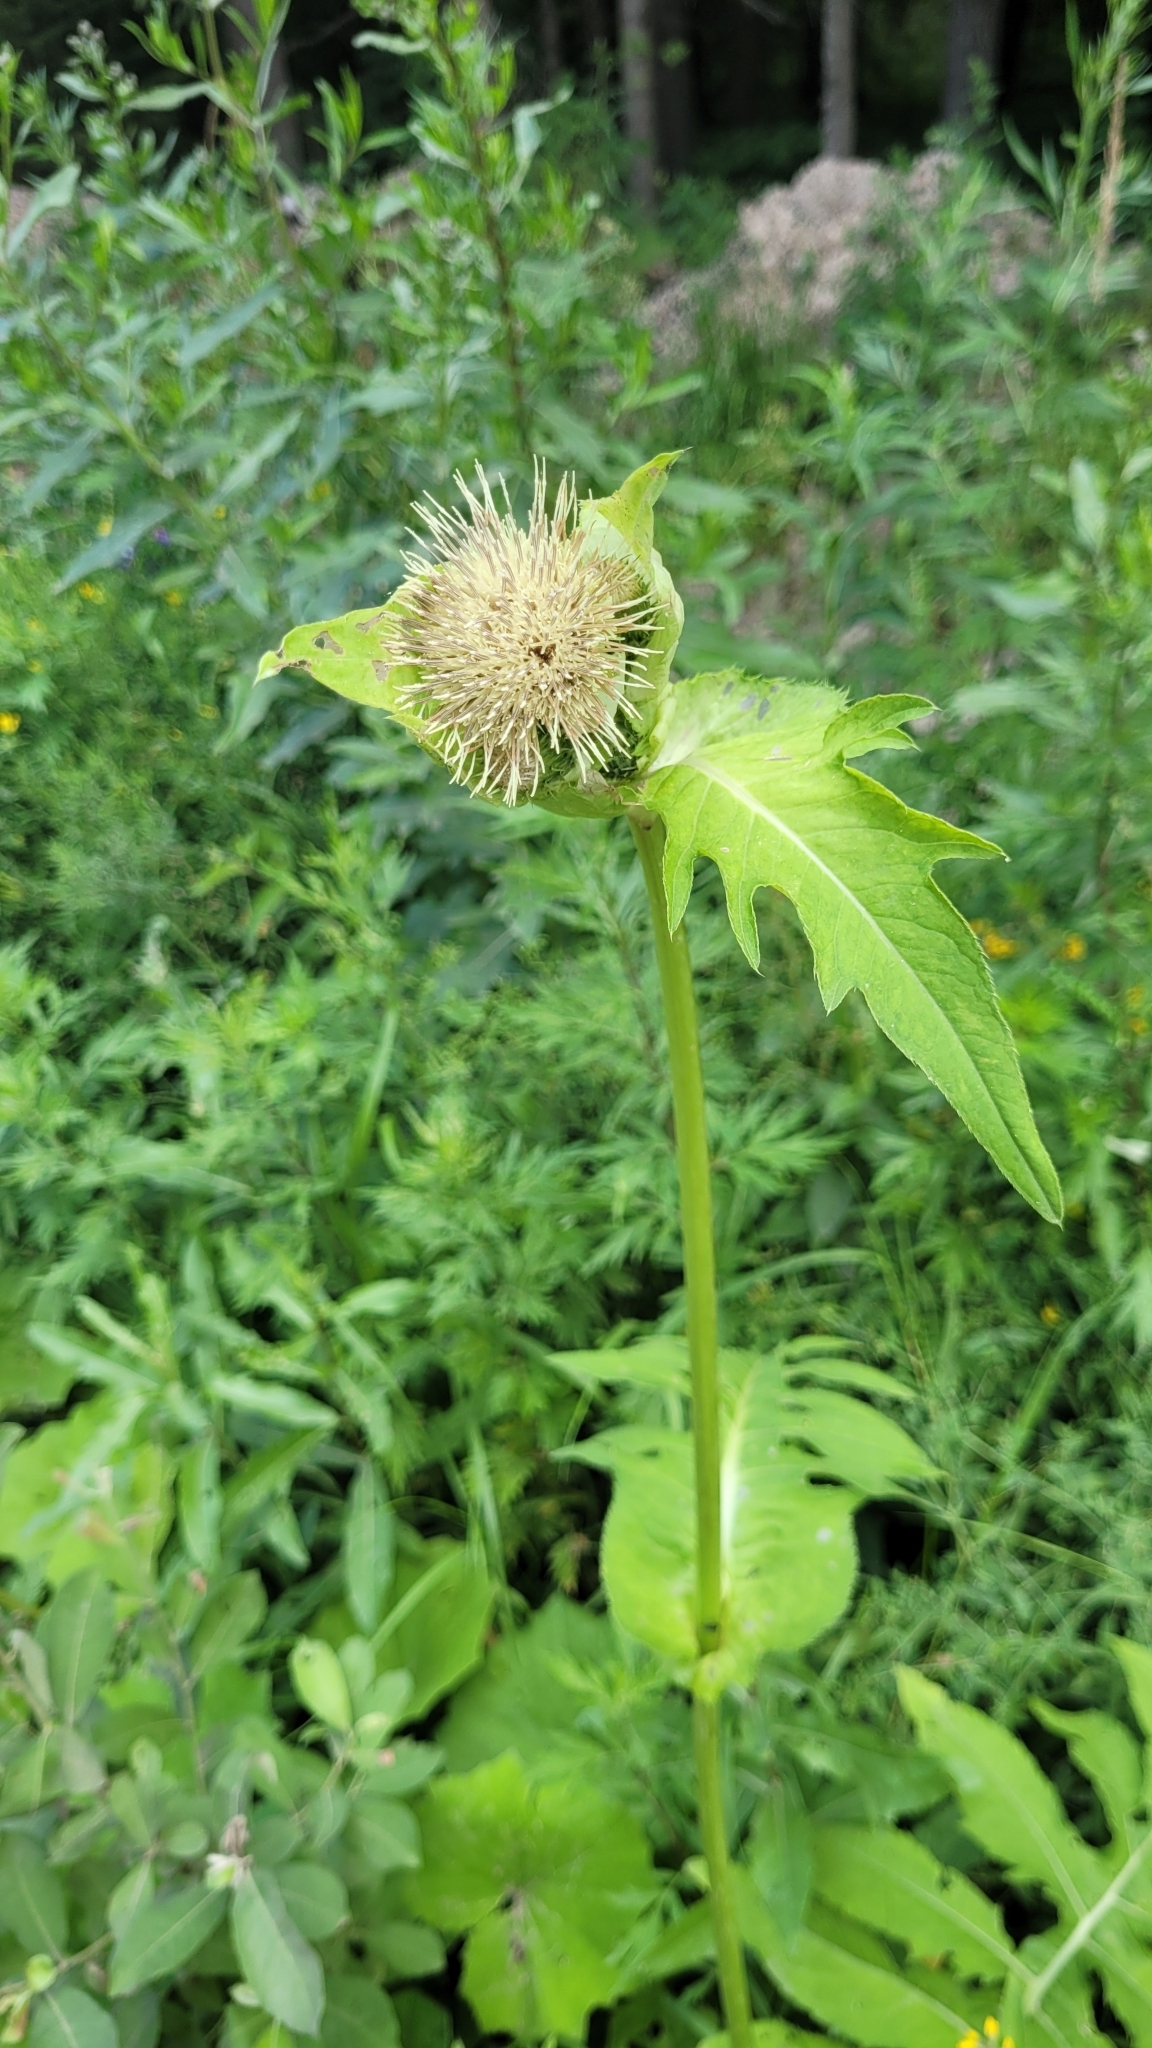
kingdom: Plantae
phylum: Tracheophyta
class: Magnoliopsida
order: Asterales
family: Asteraceae
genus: Cirsium
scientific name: Cirsium oleraceum
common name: Cabbage thistle
